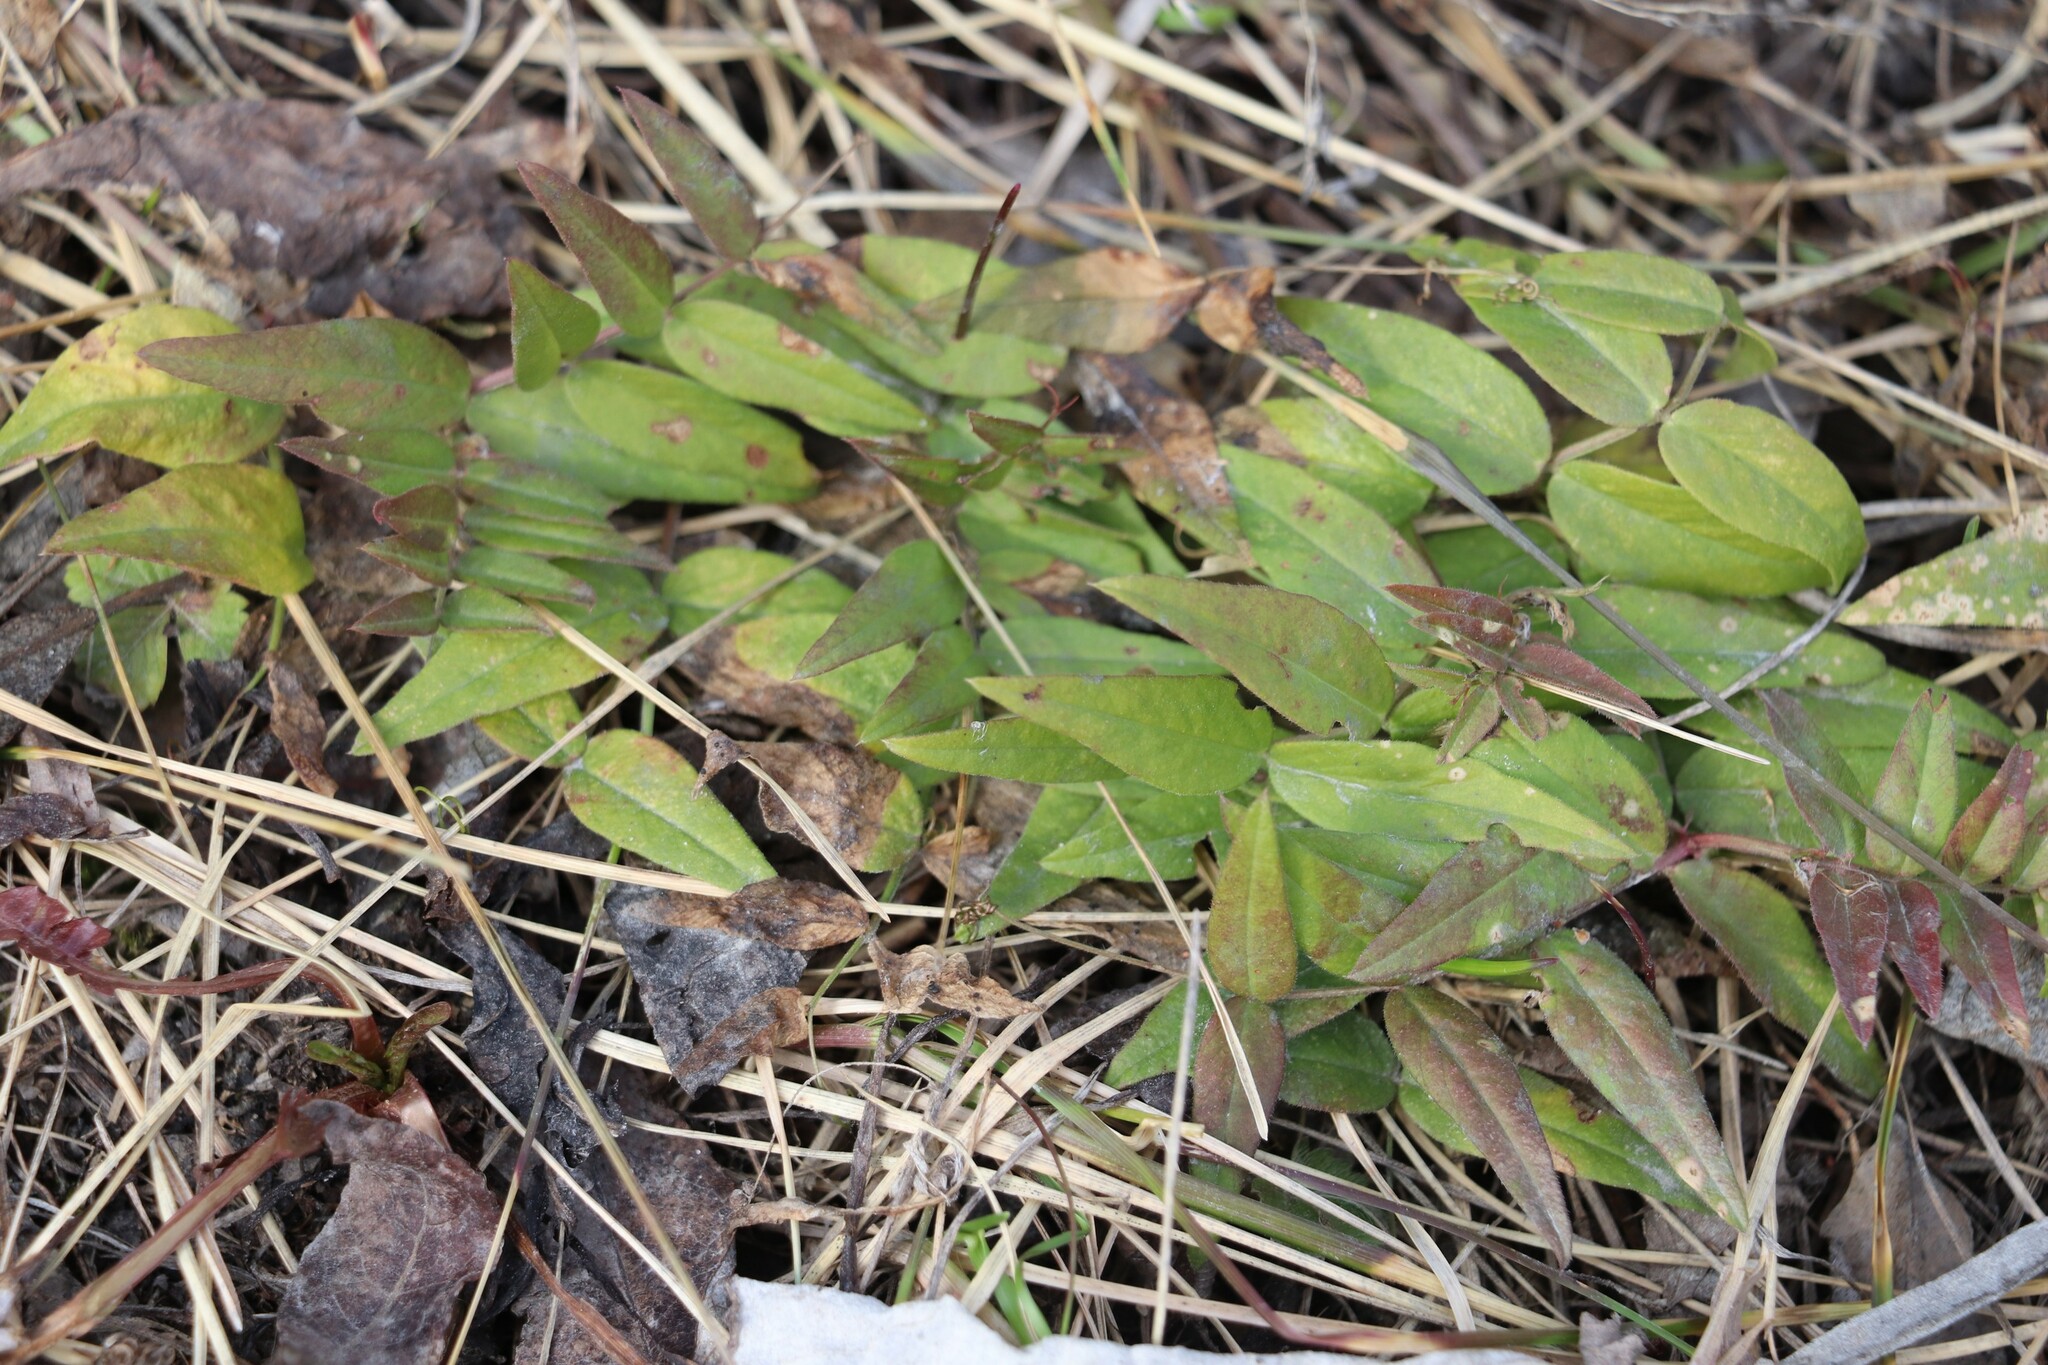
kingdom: Plantae
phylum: Tracheophyta
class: Magnoliopsida
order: Fabales
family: Fabaceae
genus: Vicia
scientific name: Vicia sepium
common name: Bush vetch
